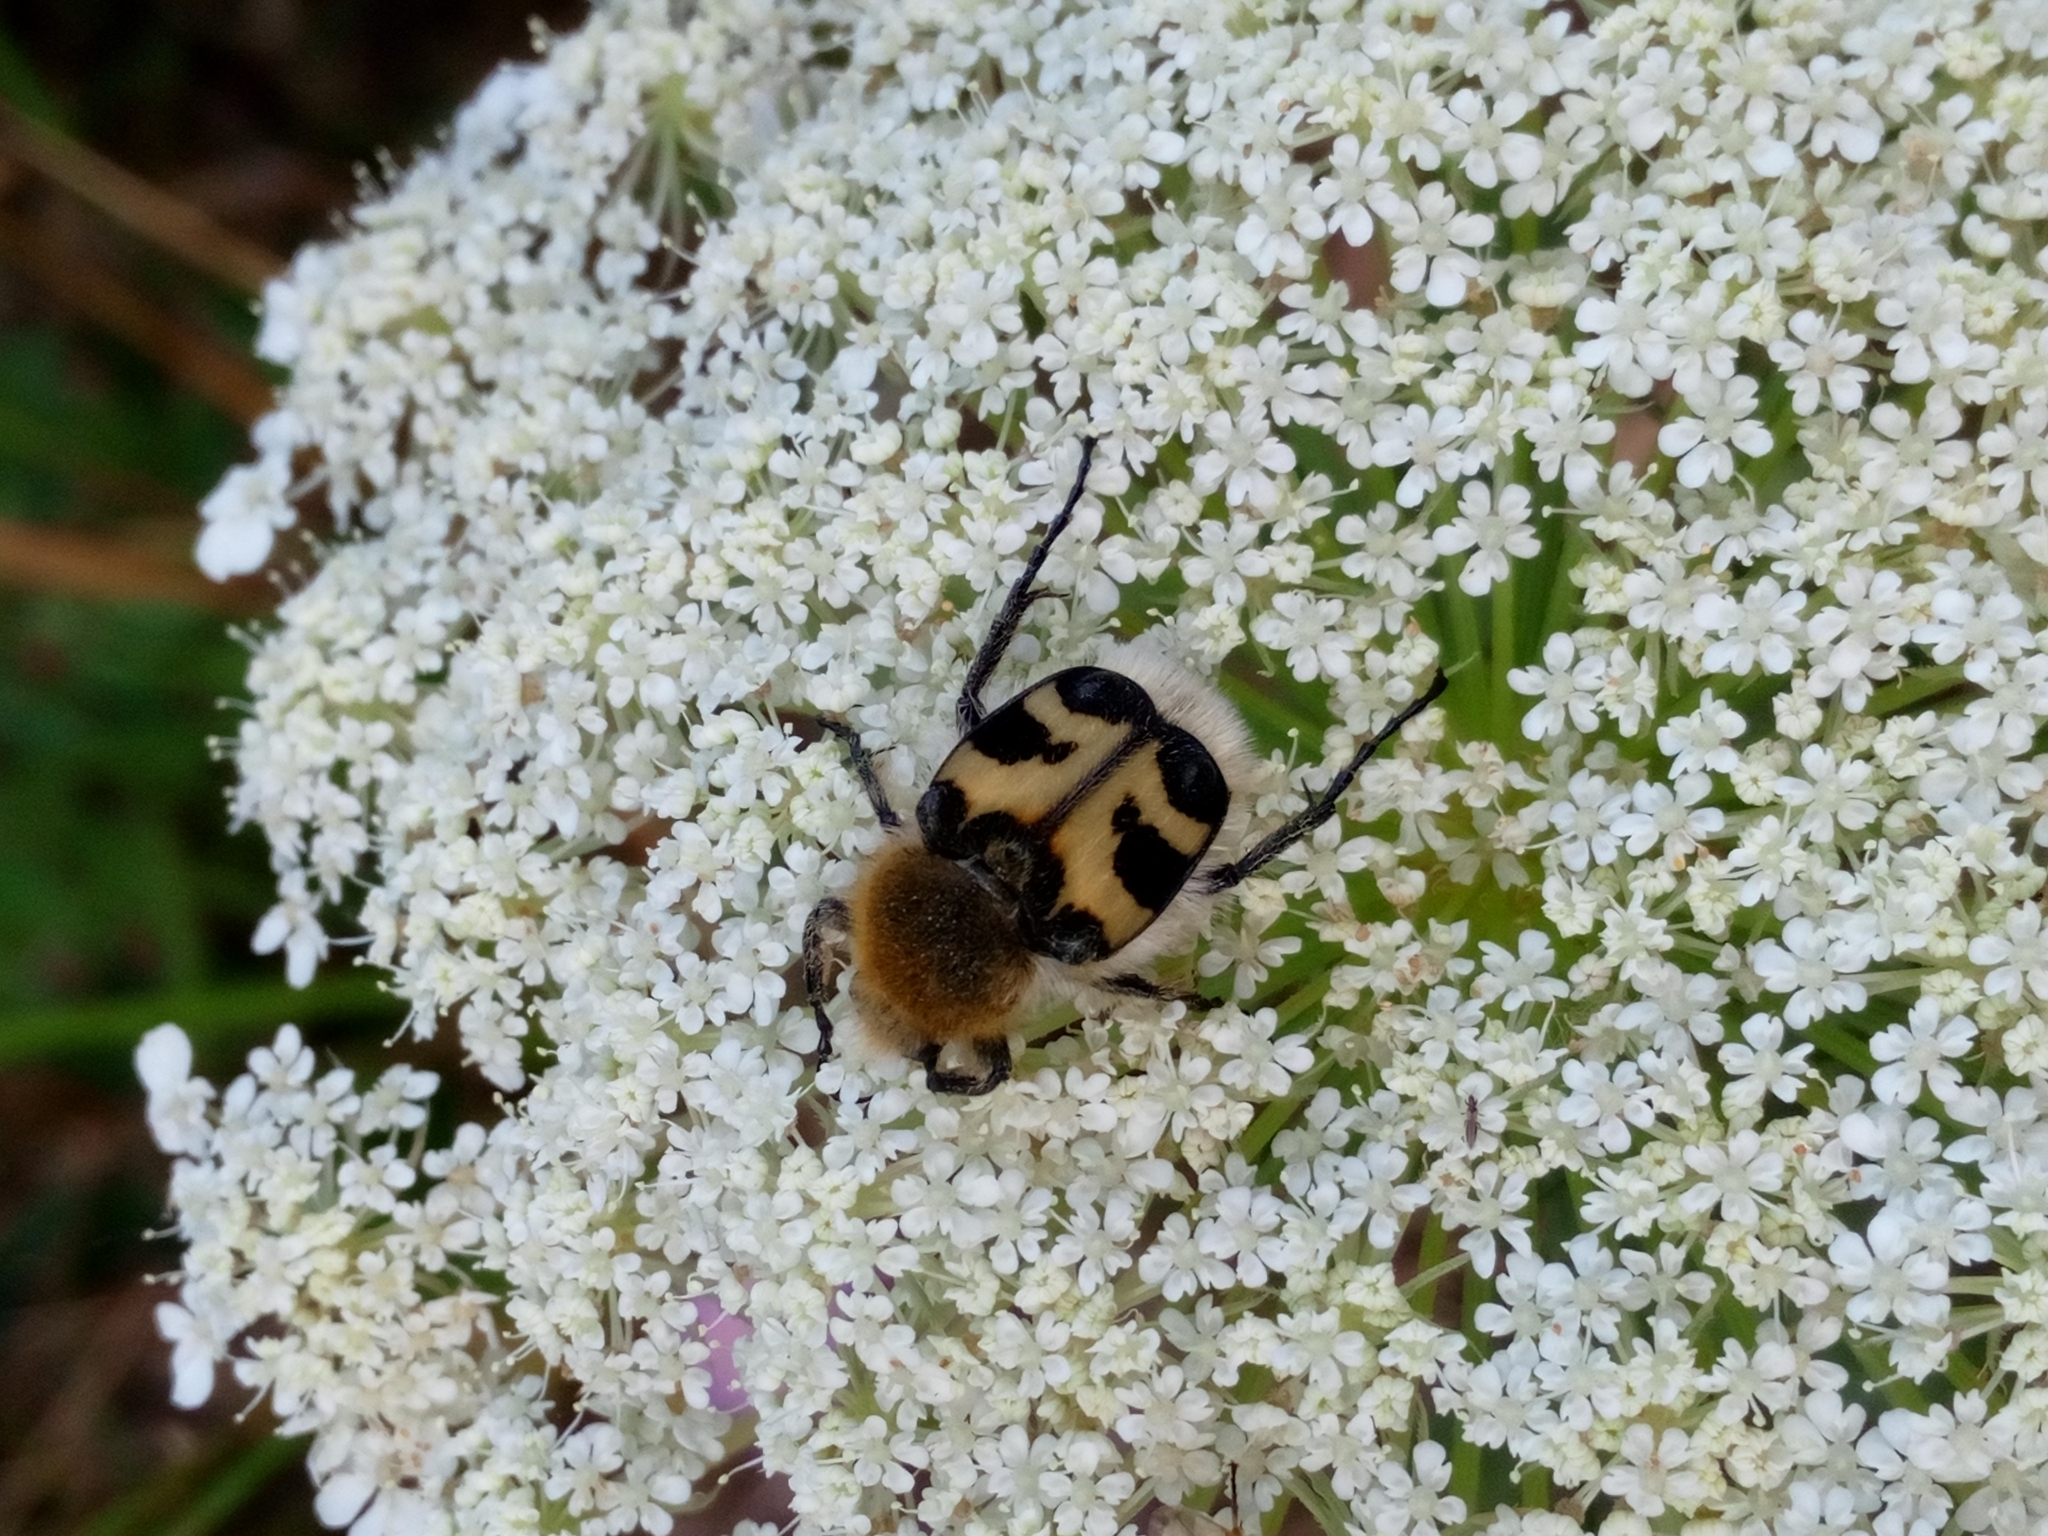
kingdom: Animalia
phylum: Arthropoda
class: Insecta
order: Coleoptera
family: Scarabaeidae
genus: Trichius
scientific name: Trichius fasciatus
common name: Bee beetle
